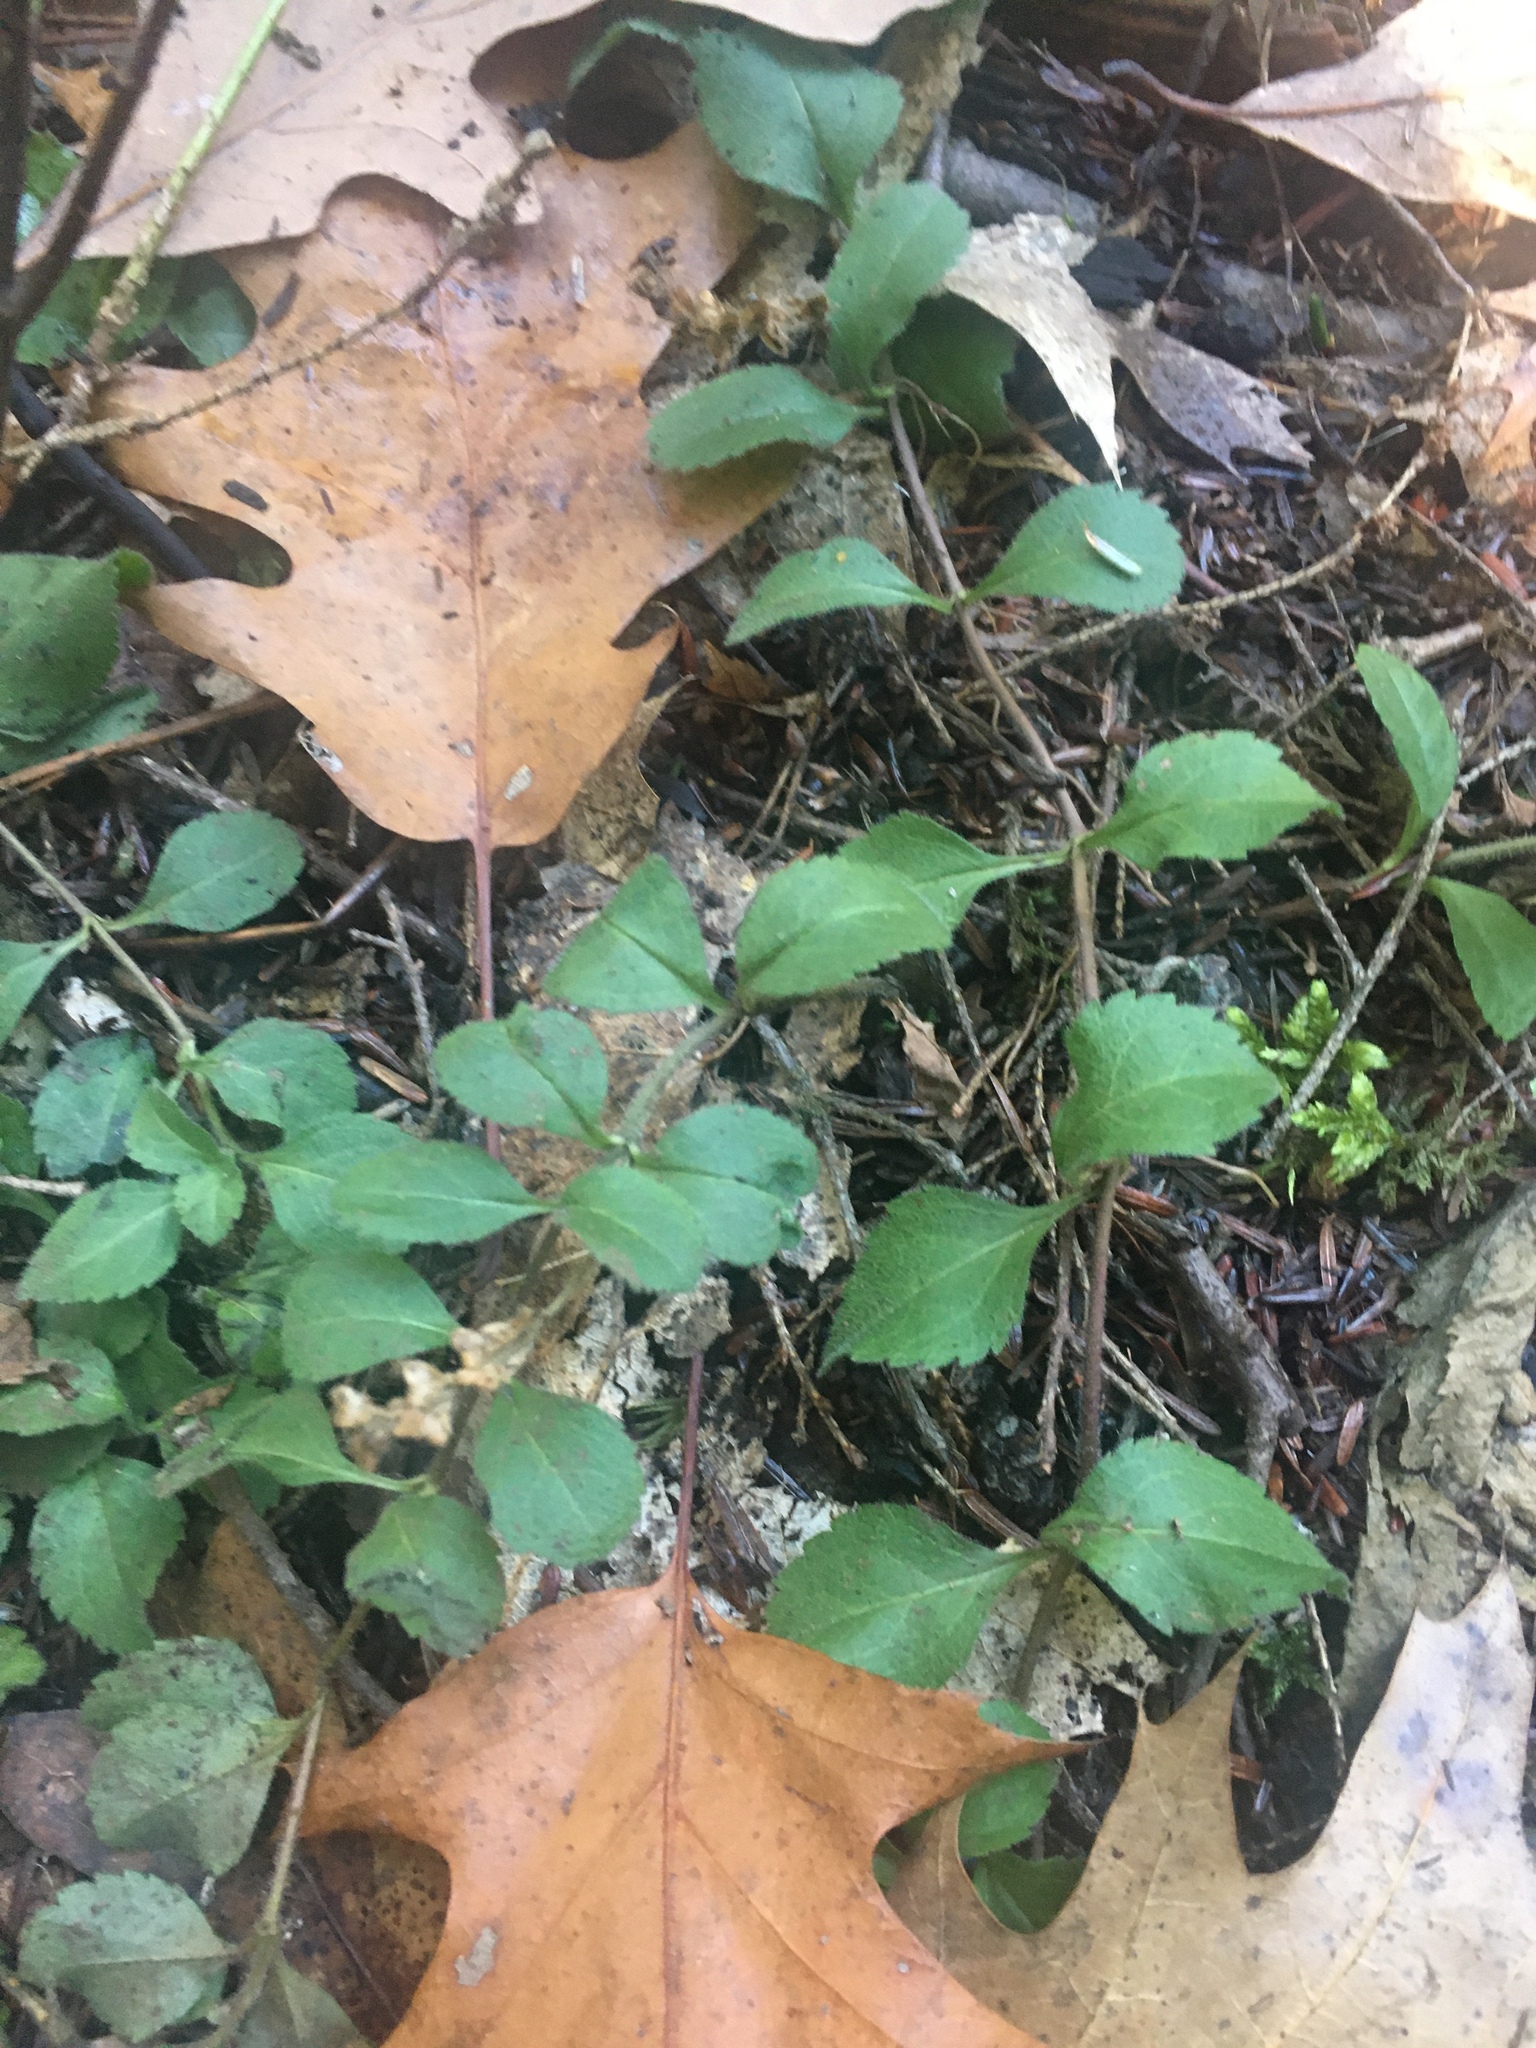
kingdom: Plantae
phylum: Tracheophyta
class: Magnoliopsida
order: Lamiales
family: Plantaginaceae
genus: Veronica
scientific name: Veronica officinalis
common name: Common speedwell
